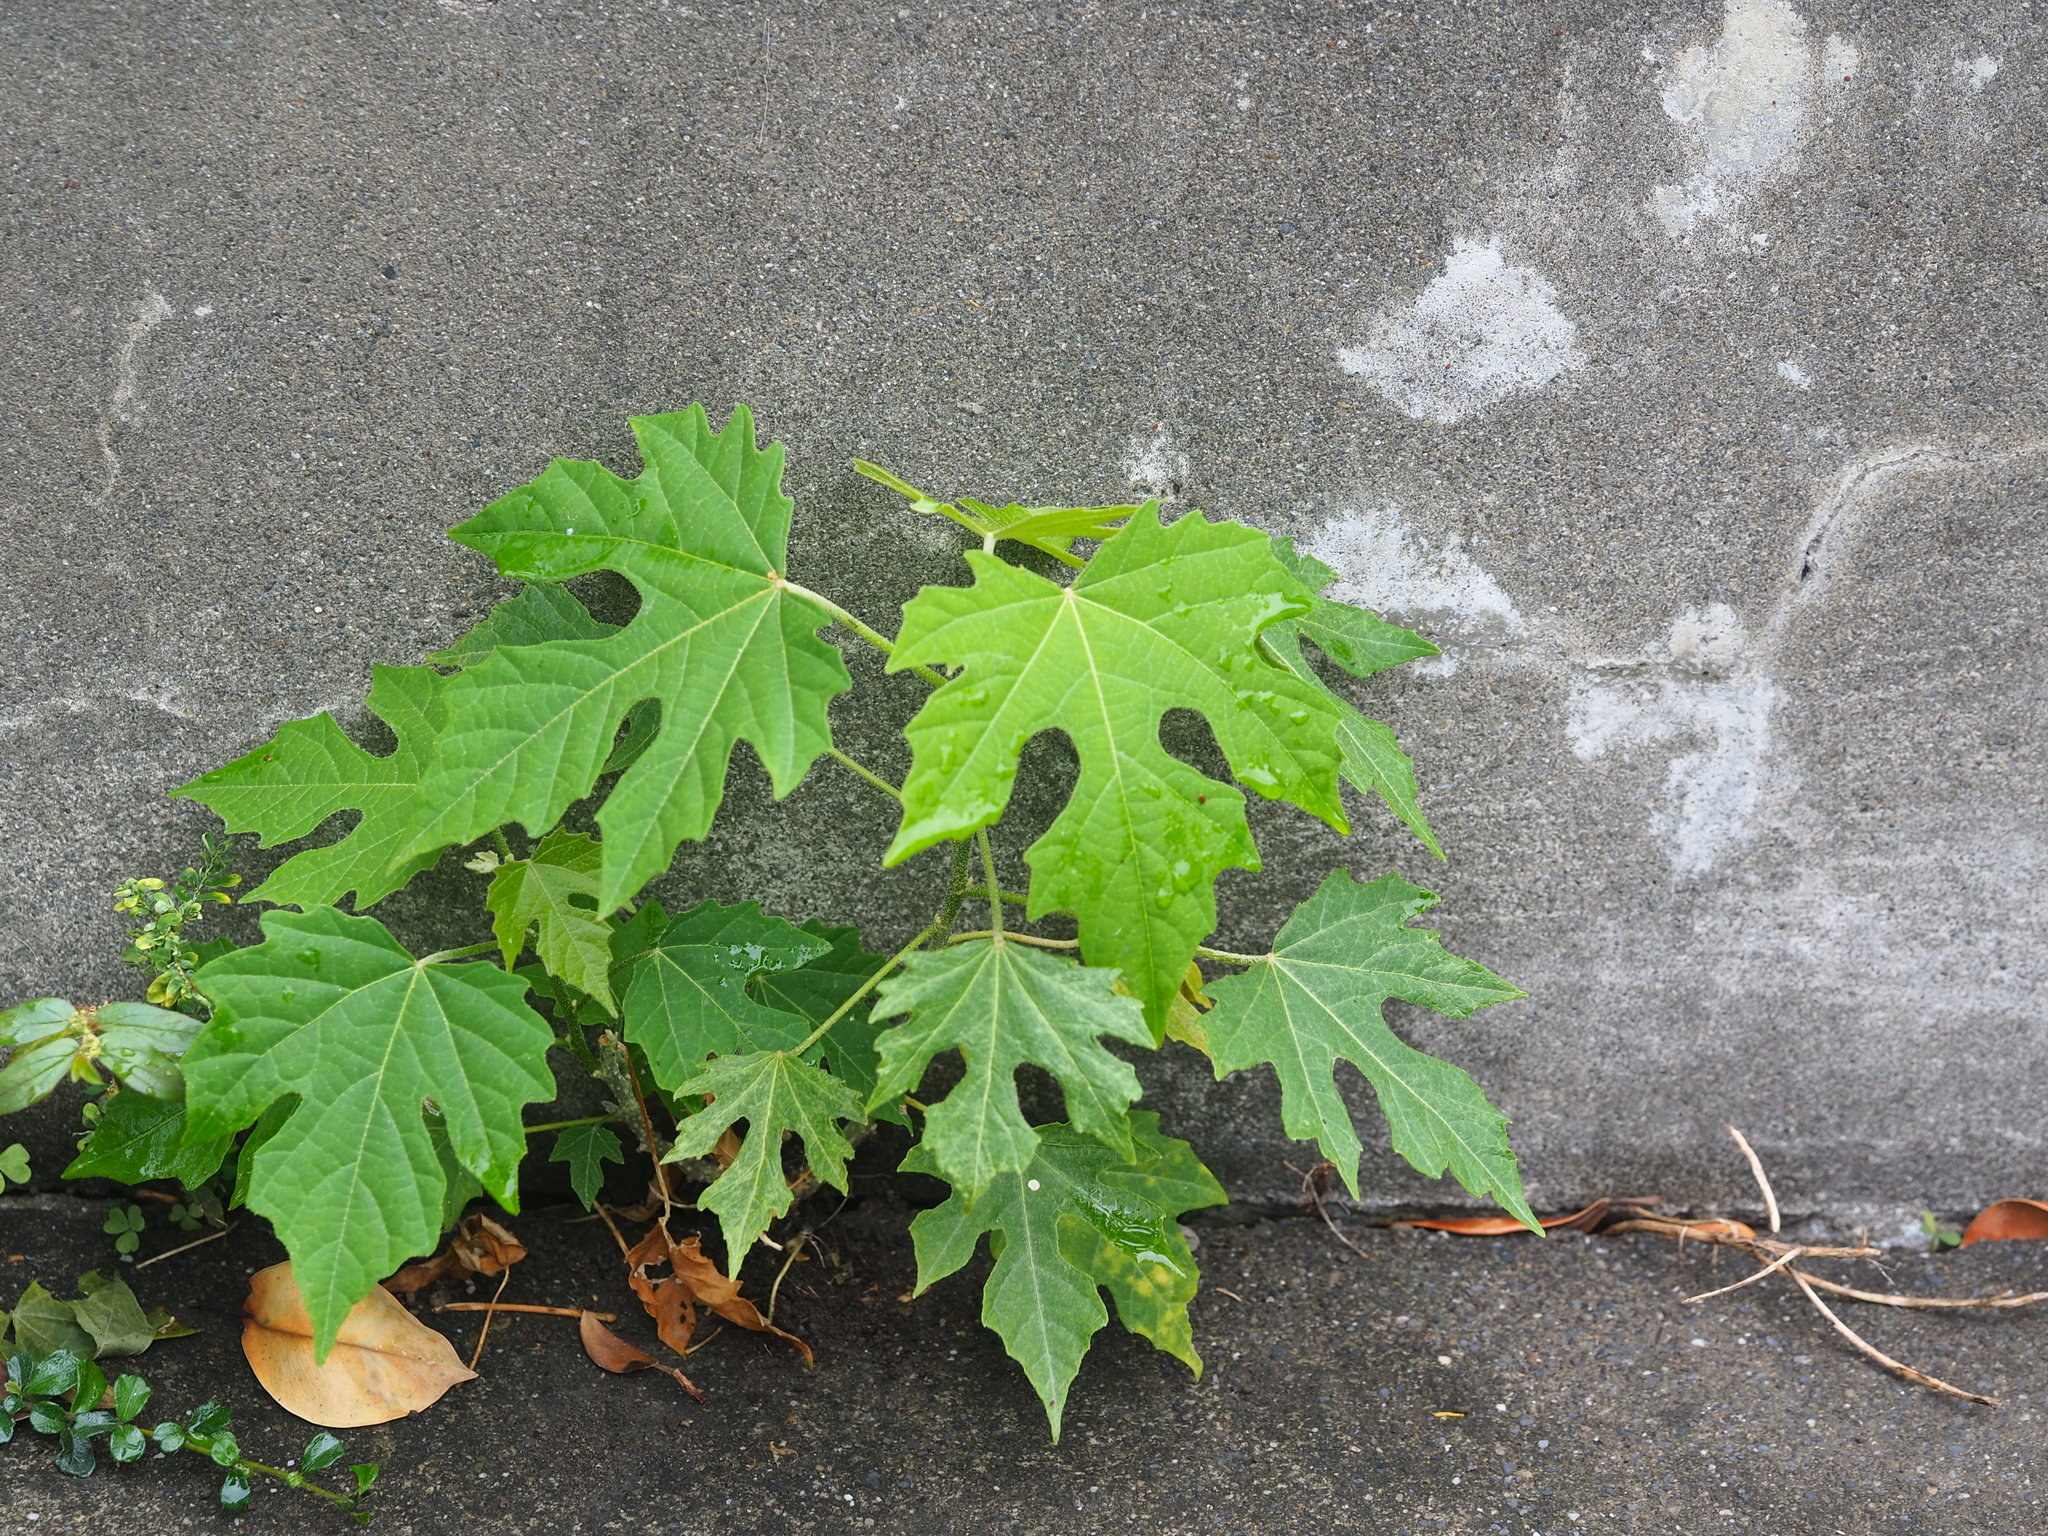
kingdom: Plantae
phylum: Tracheophyta
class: Magnoliopsida
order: Malpighiales
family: Euphorbiaceae
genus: Melanolepis
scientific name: Melanolepis multiglandulosa
